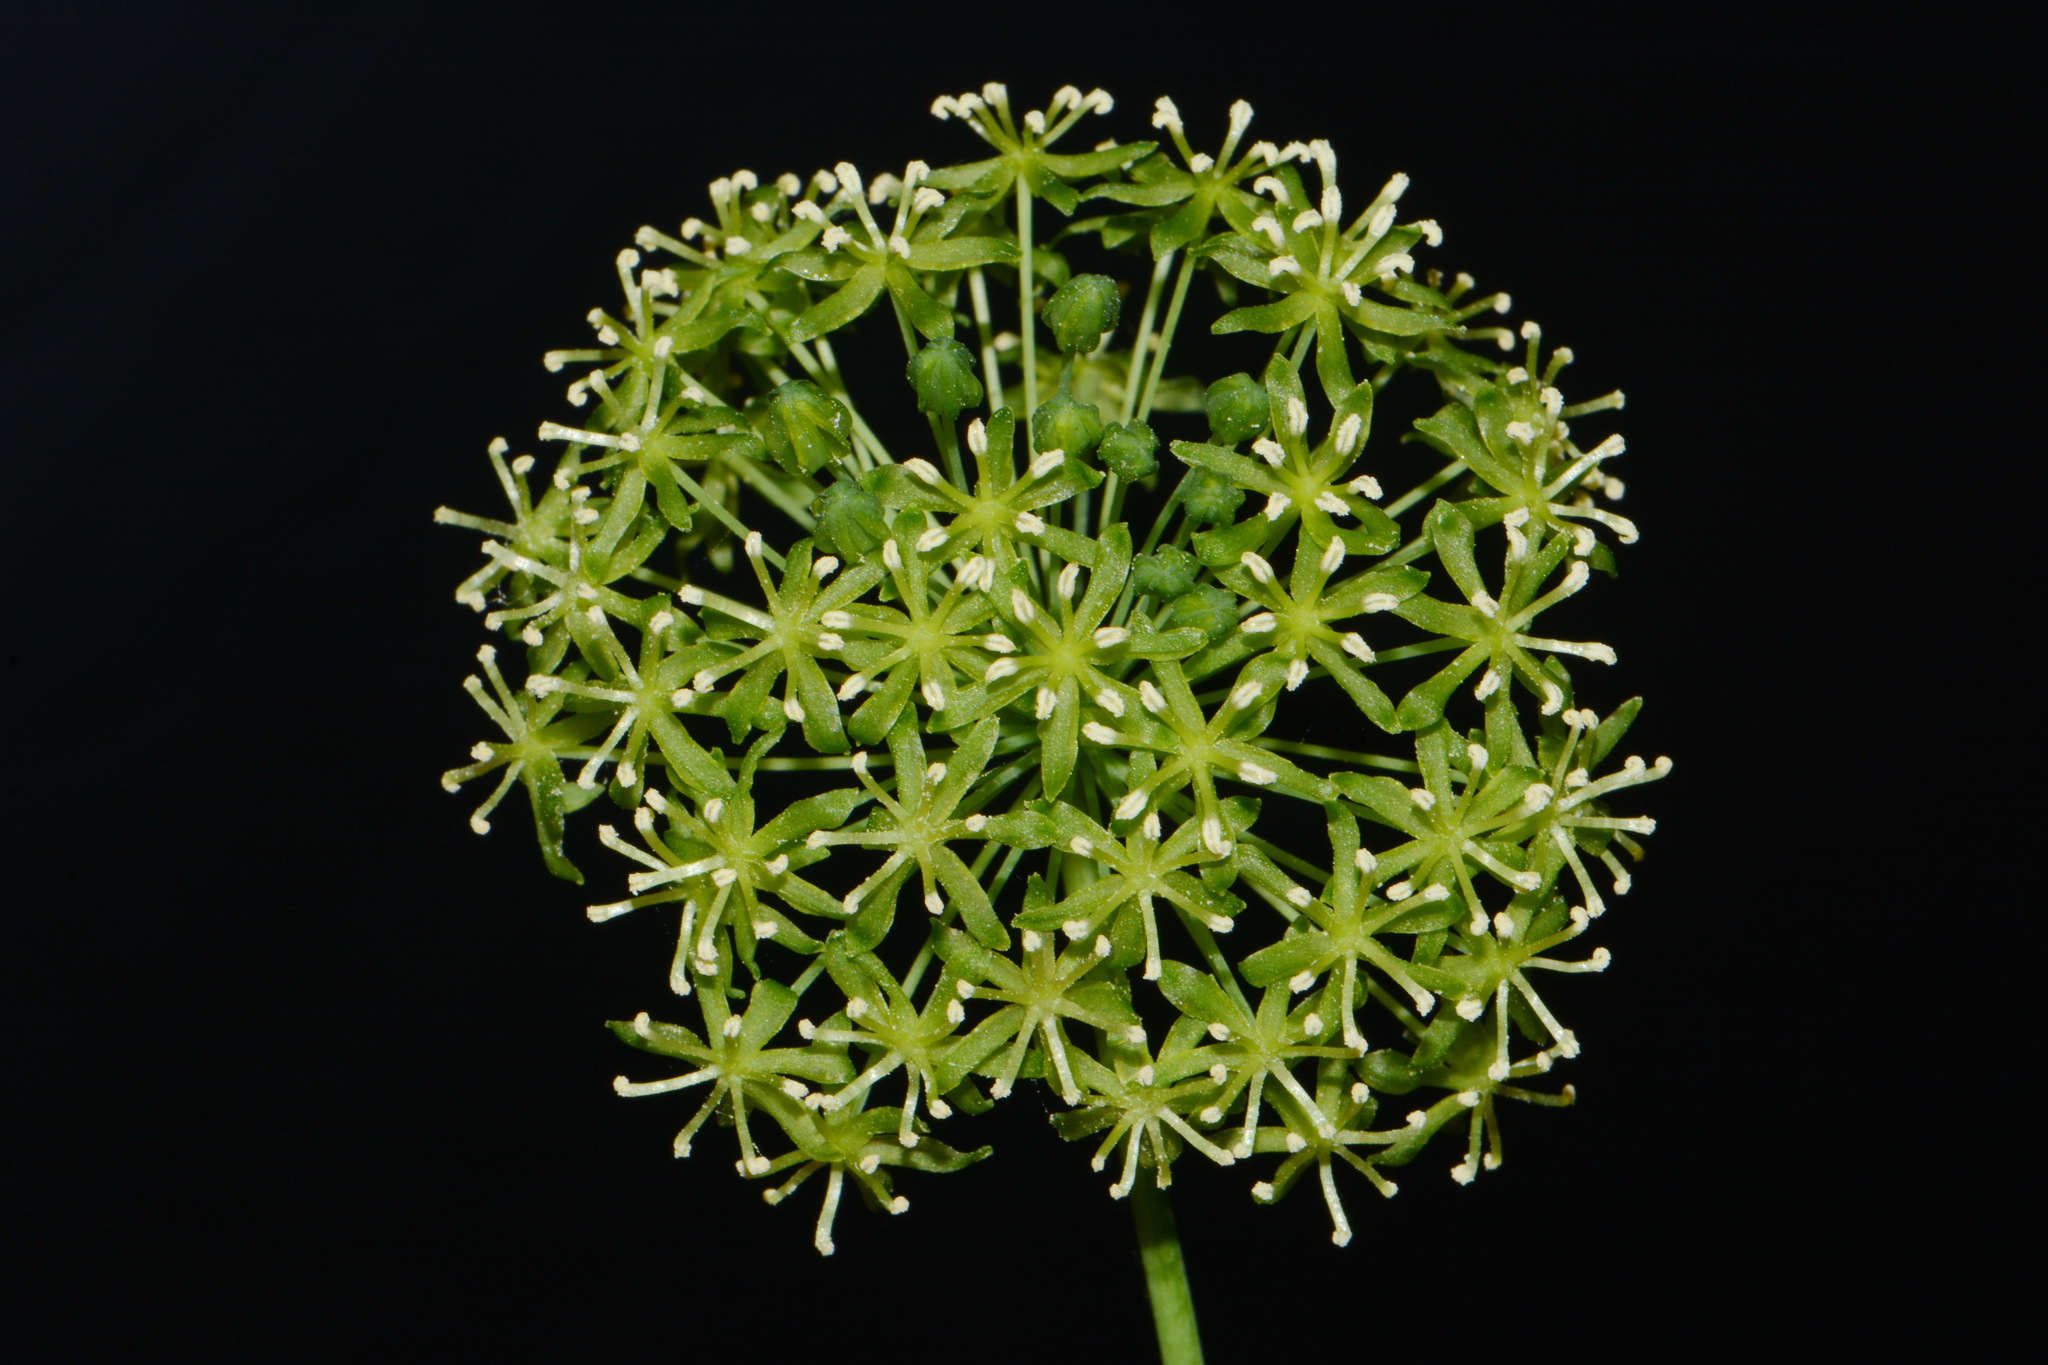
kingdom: Plantae
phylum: Tracheophyta
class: Liliopsida
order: Liliales
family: Smilacaceae
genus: Smilax
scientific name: Smilax herbacea
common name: Jacob's-ladder
